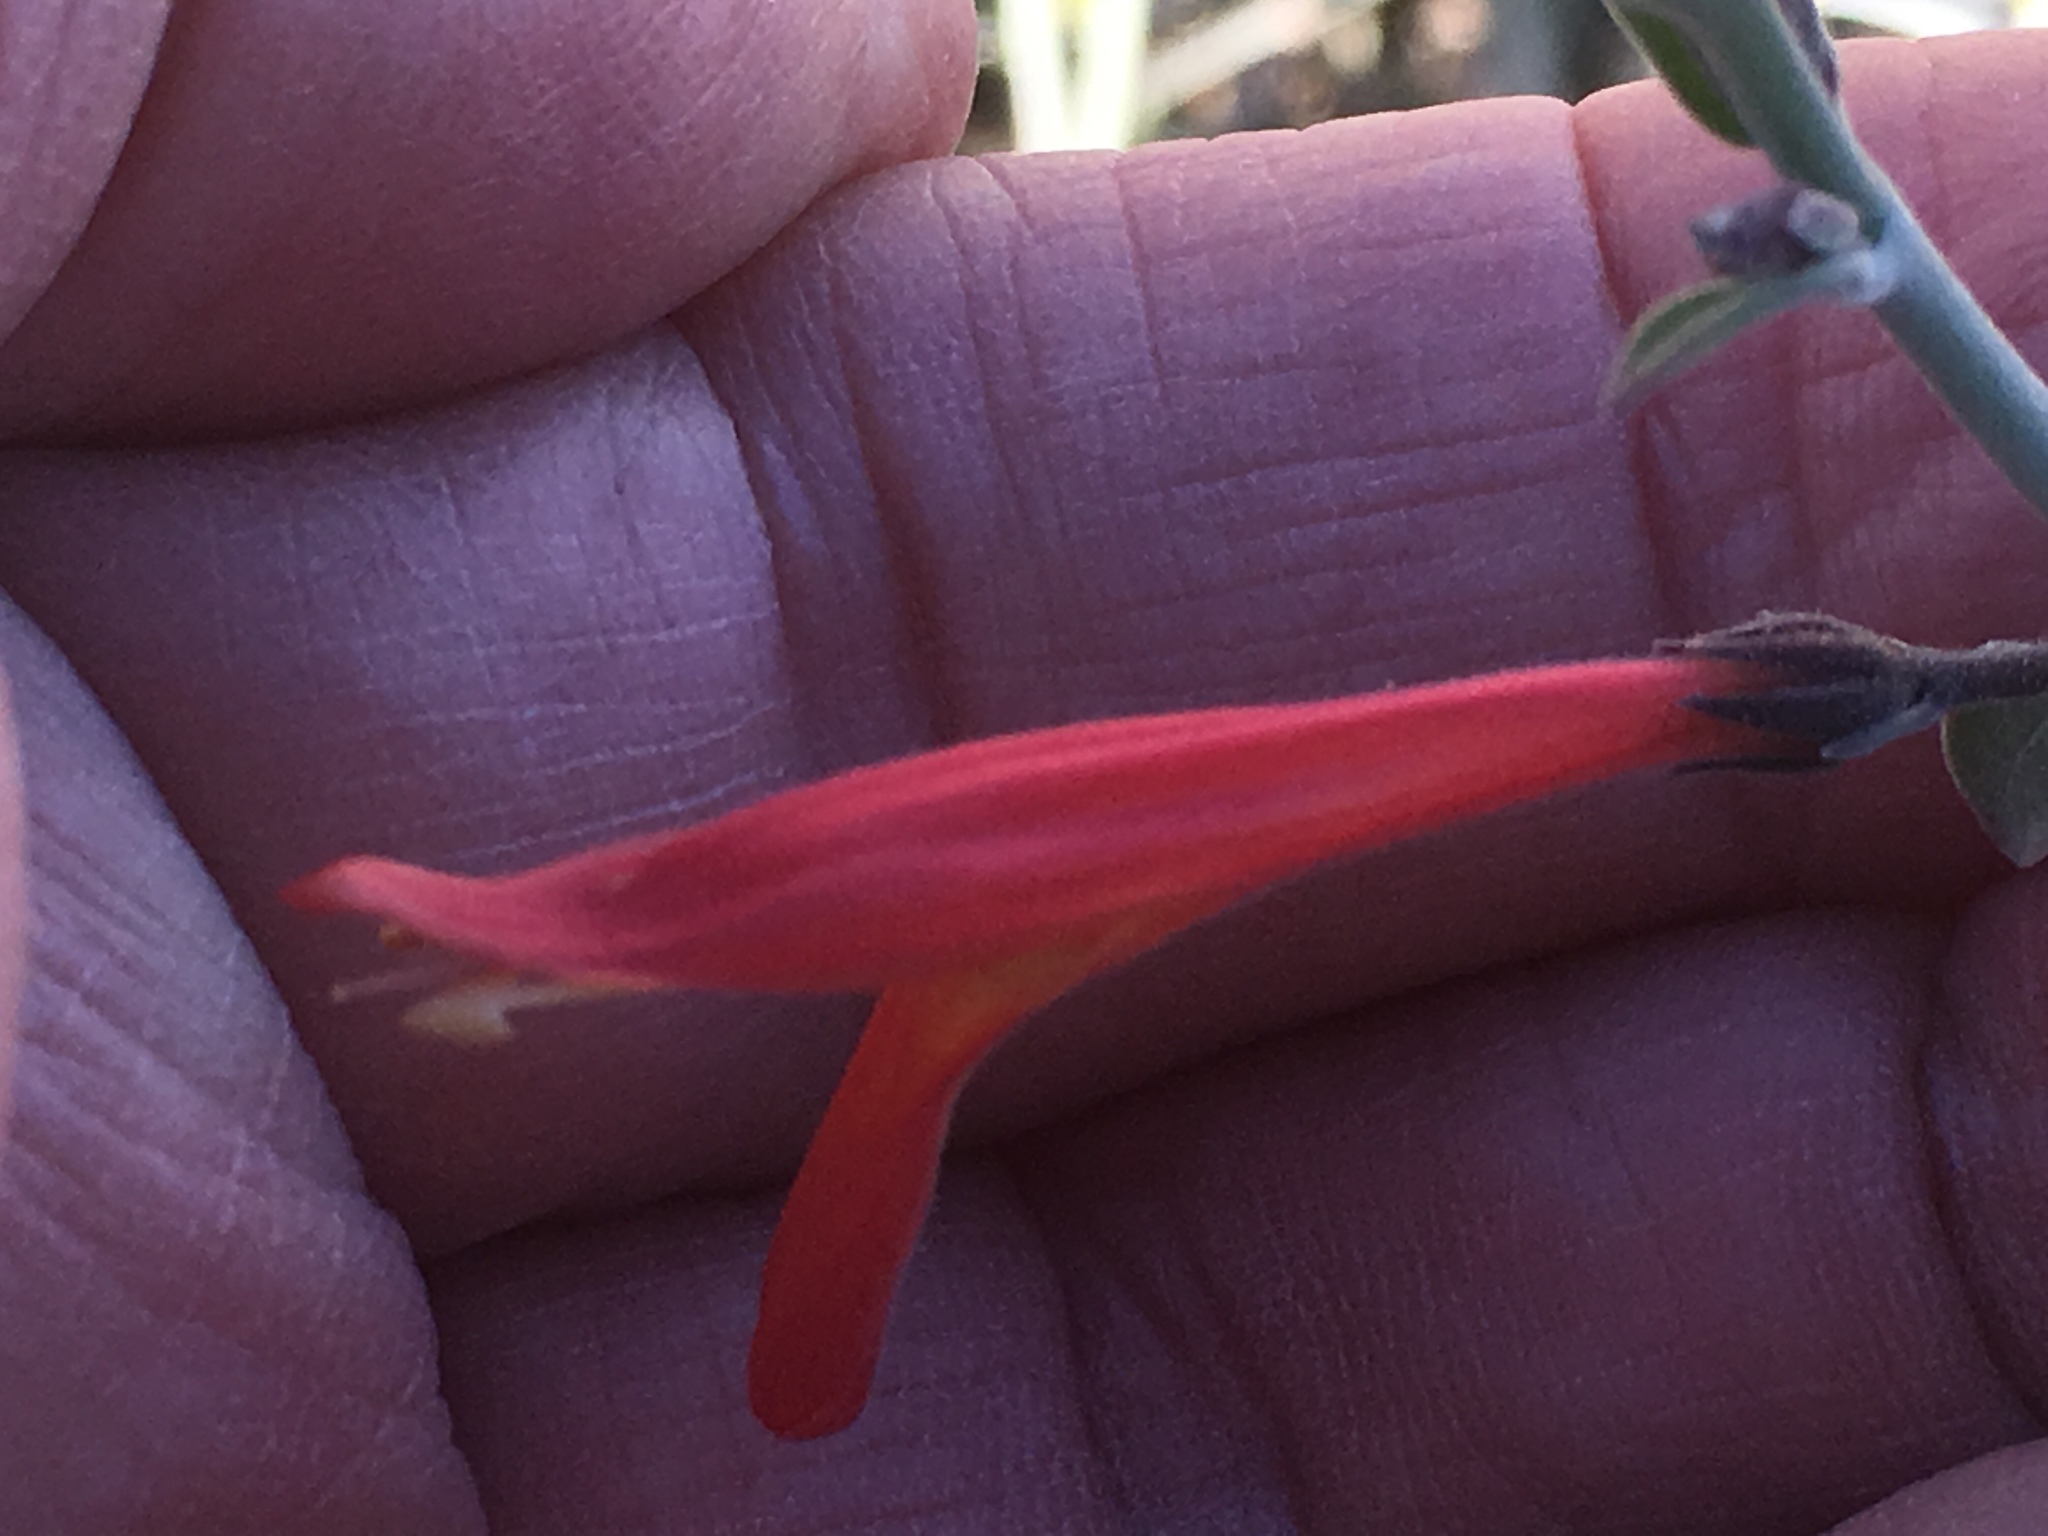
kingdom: Plantae
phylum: Tracheophyta
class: Magnoliopsida
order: Lamiales
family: Acanthaceae
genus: Justicia
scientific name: Justicia californica
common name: Chuparosa-honeysuckle
